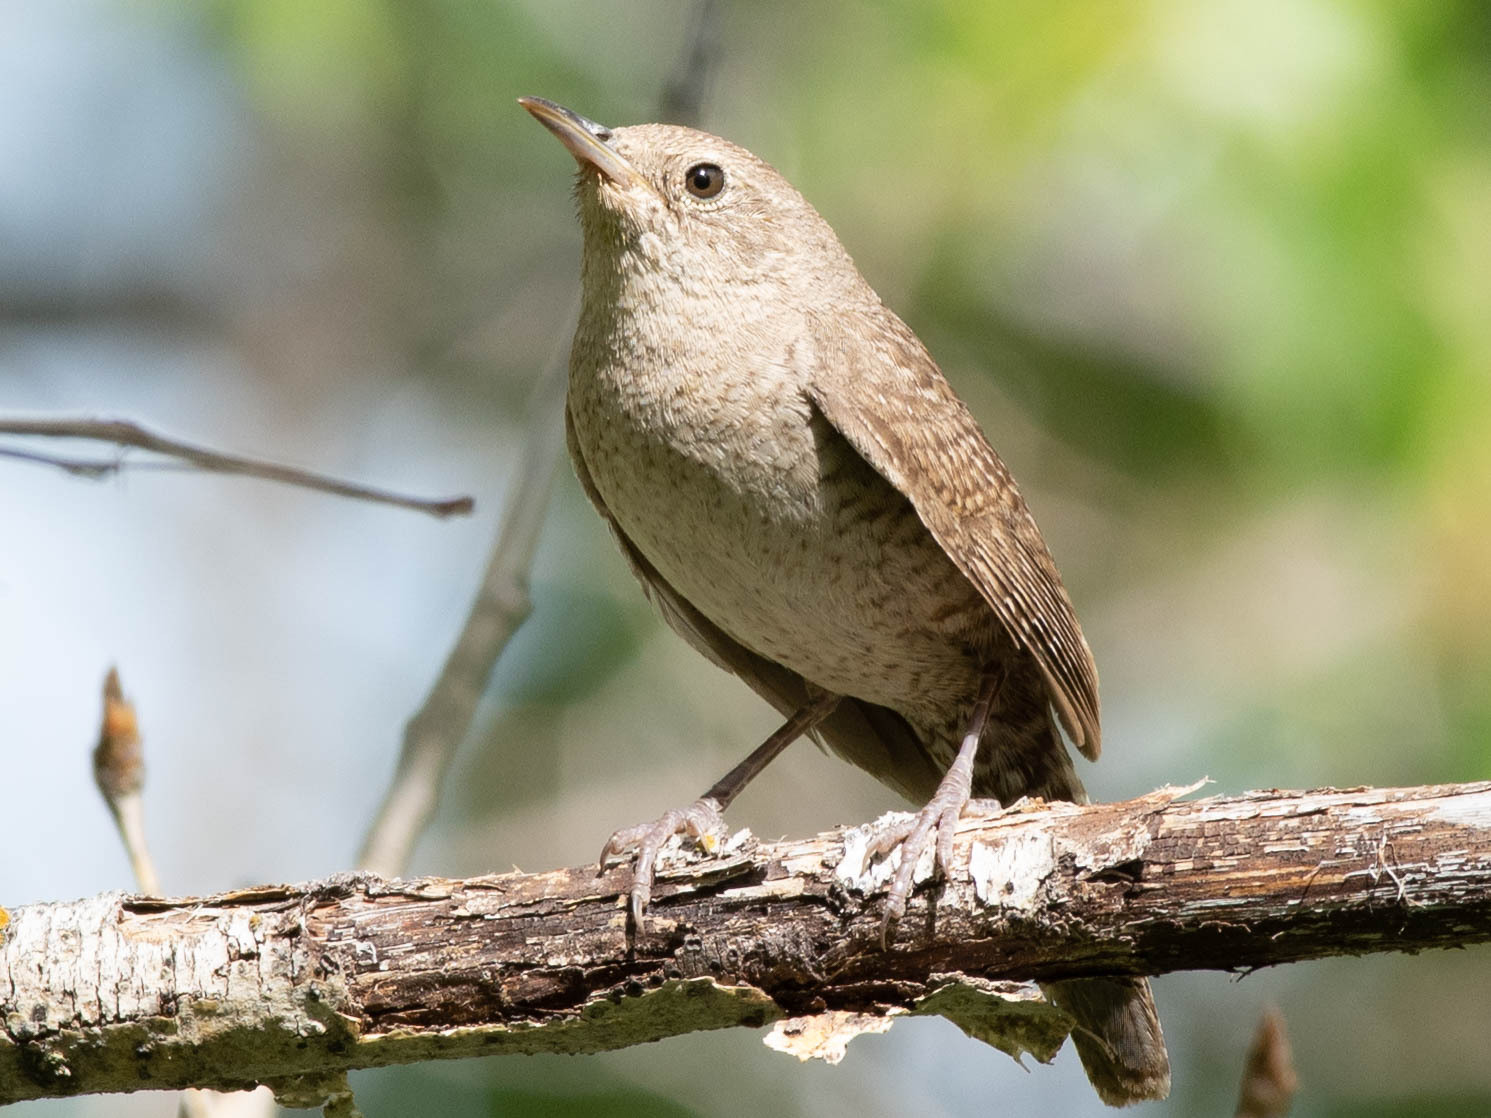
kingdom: Animalia
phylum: Chordata
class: Aves
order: Passeriformes
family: Troglodytidae
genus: Troglodytes
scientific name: Troglodytes aedon
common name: House wren
